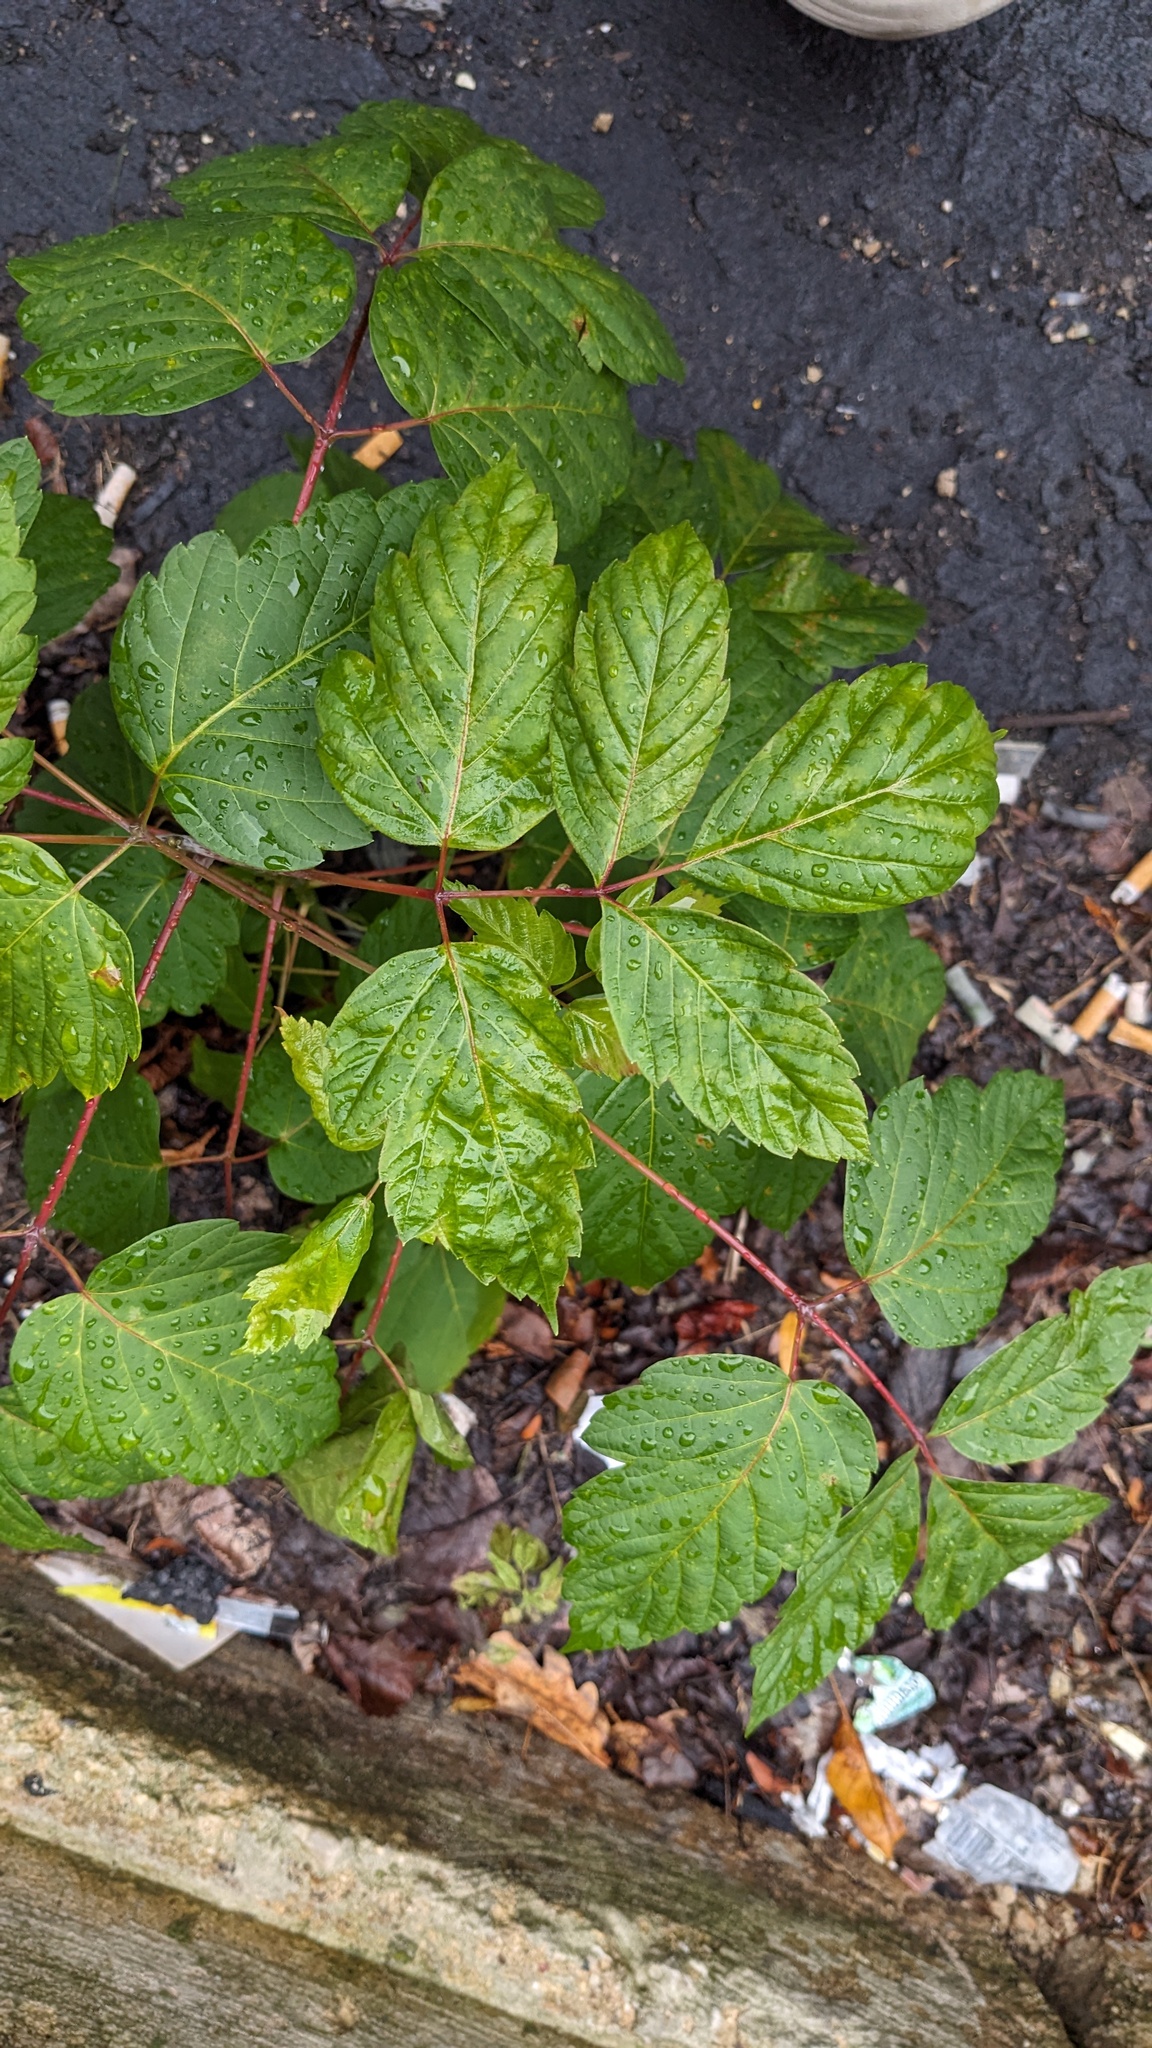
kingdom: Plantae
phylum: Tracheophyta
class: Magnoliopsida
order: Sapindales
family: Sapindaceae
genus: Acer
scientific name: Acer negundo
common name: Ashleaf maple
